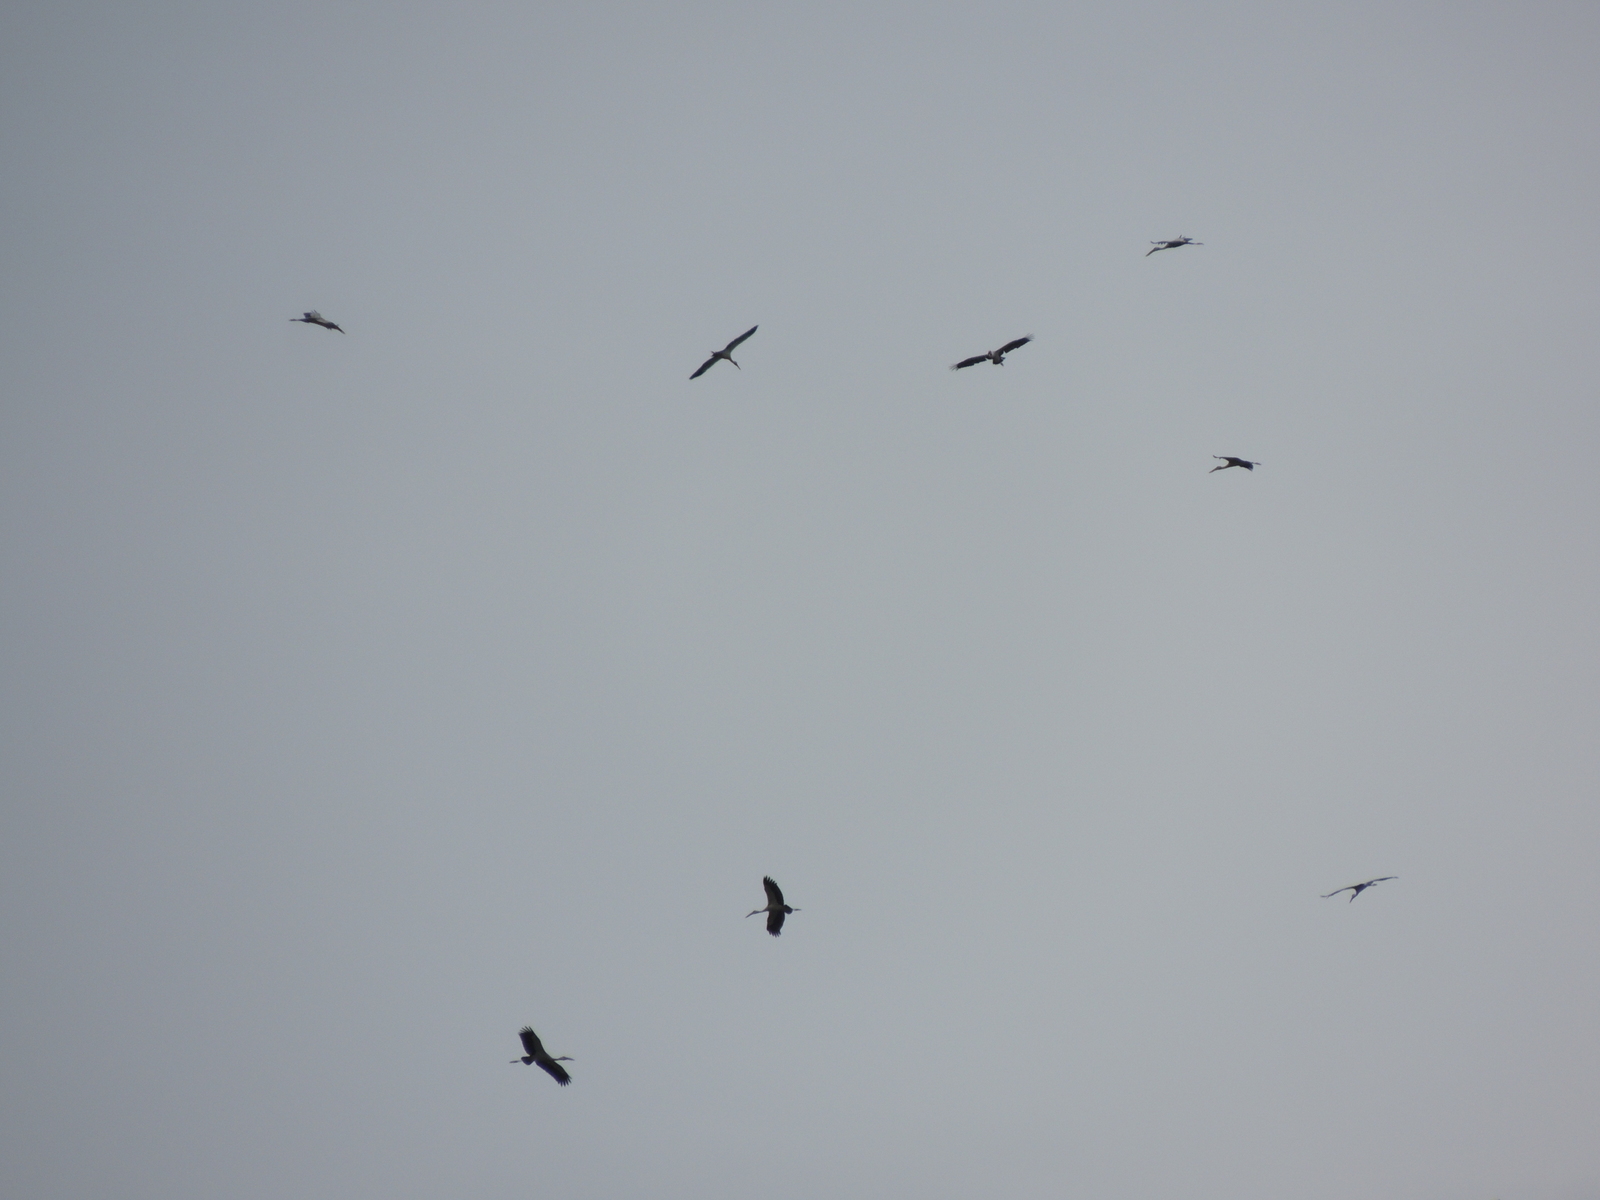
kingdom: Animalia
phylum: Chordata
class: Aves
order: Ciconiiformes
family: Ciconiidae
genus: Anastomus
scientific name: Anastomus oscitans
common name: Asian openbill
